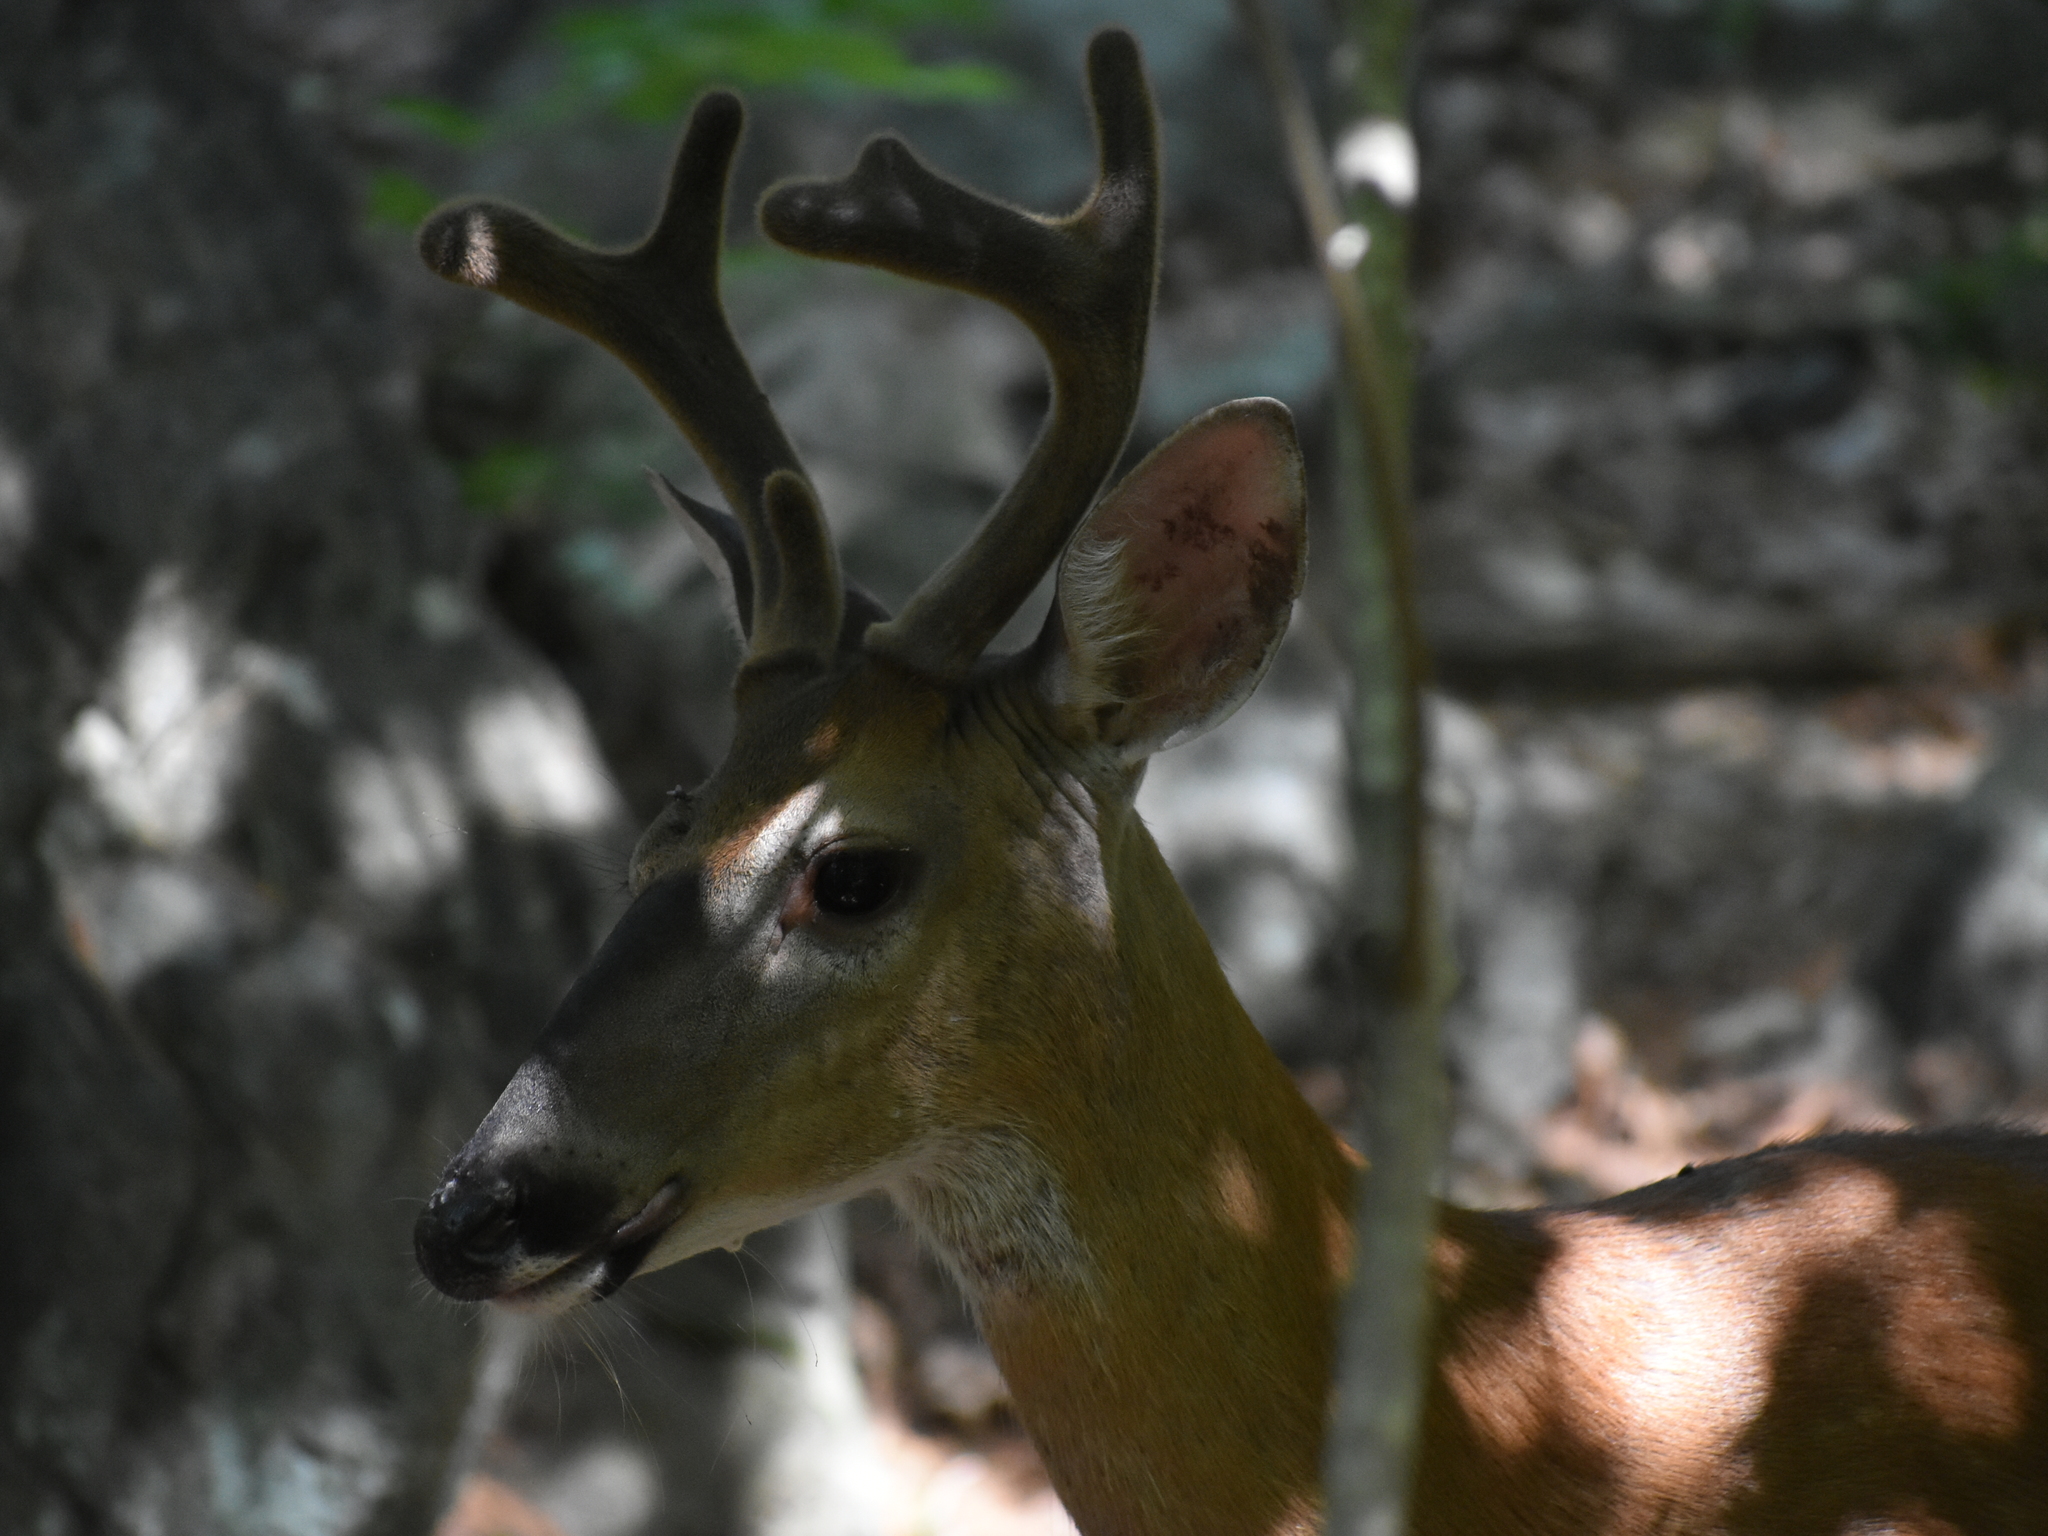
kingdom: Animalia
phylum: Chordata
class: Mammalia
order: Artiodactyla
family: Cervidae
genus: Odocoileus
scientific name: Odocoileus virginianus
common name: White-tailed deer
